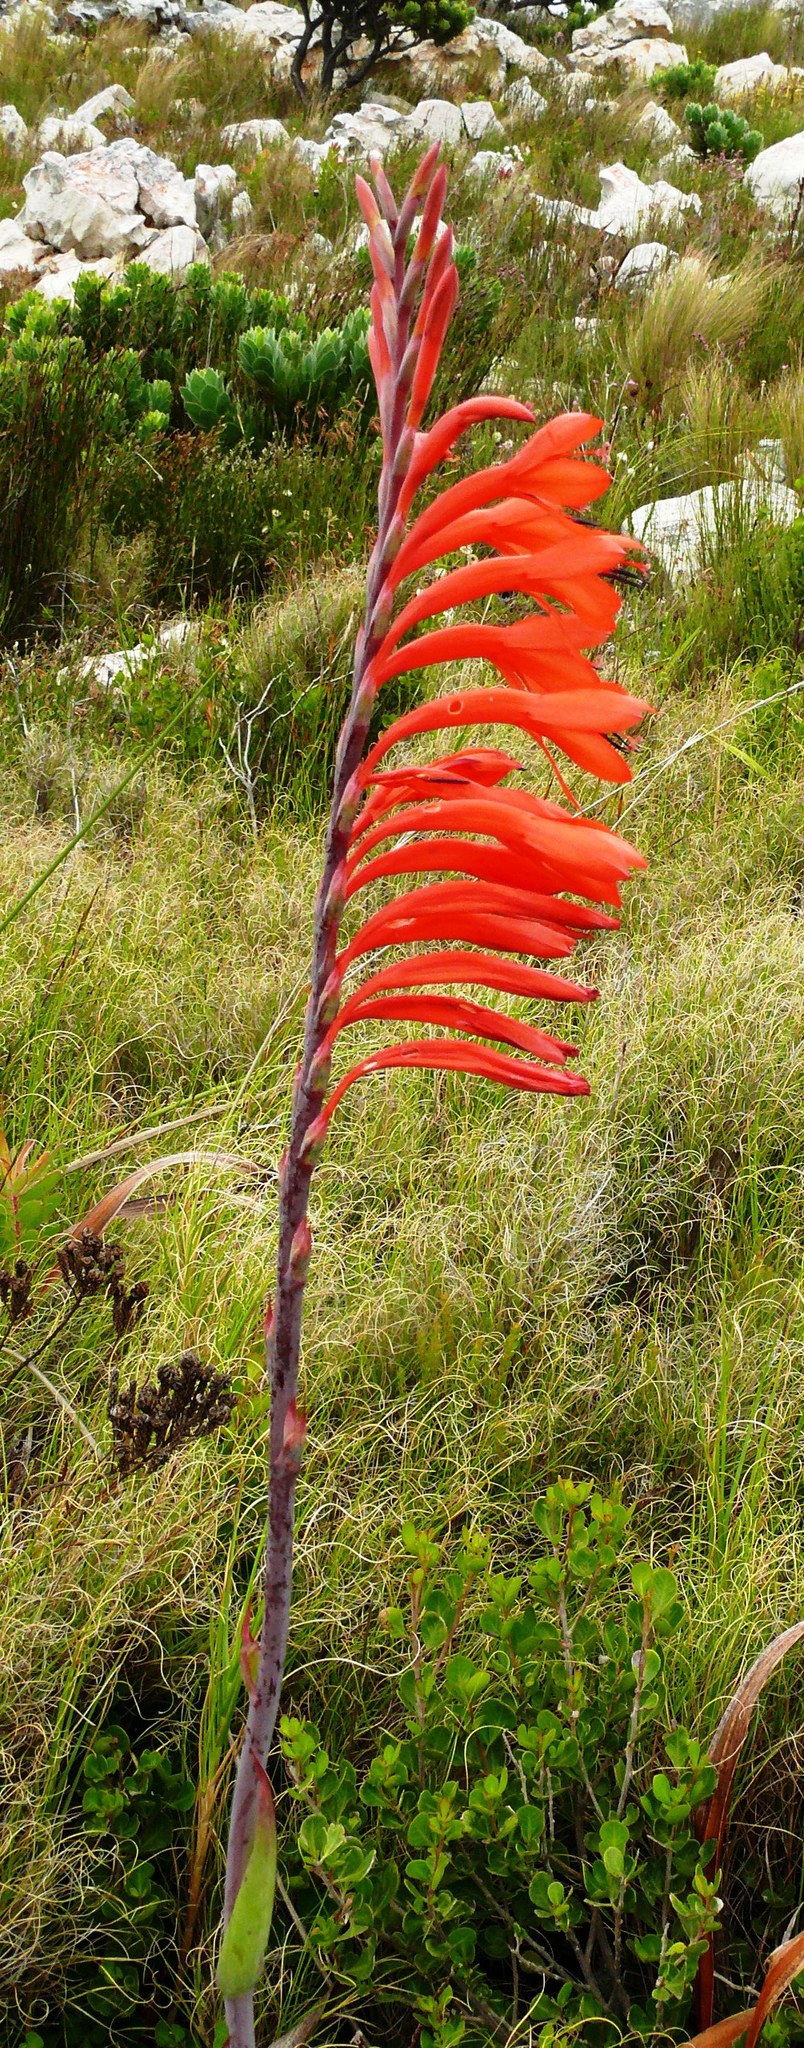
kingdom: Plantae
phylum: Tracheophyta
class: Liliopsida
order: Asparagales
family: Iridaceae
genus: Watsonia
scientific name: Watsonia tabularis
